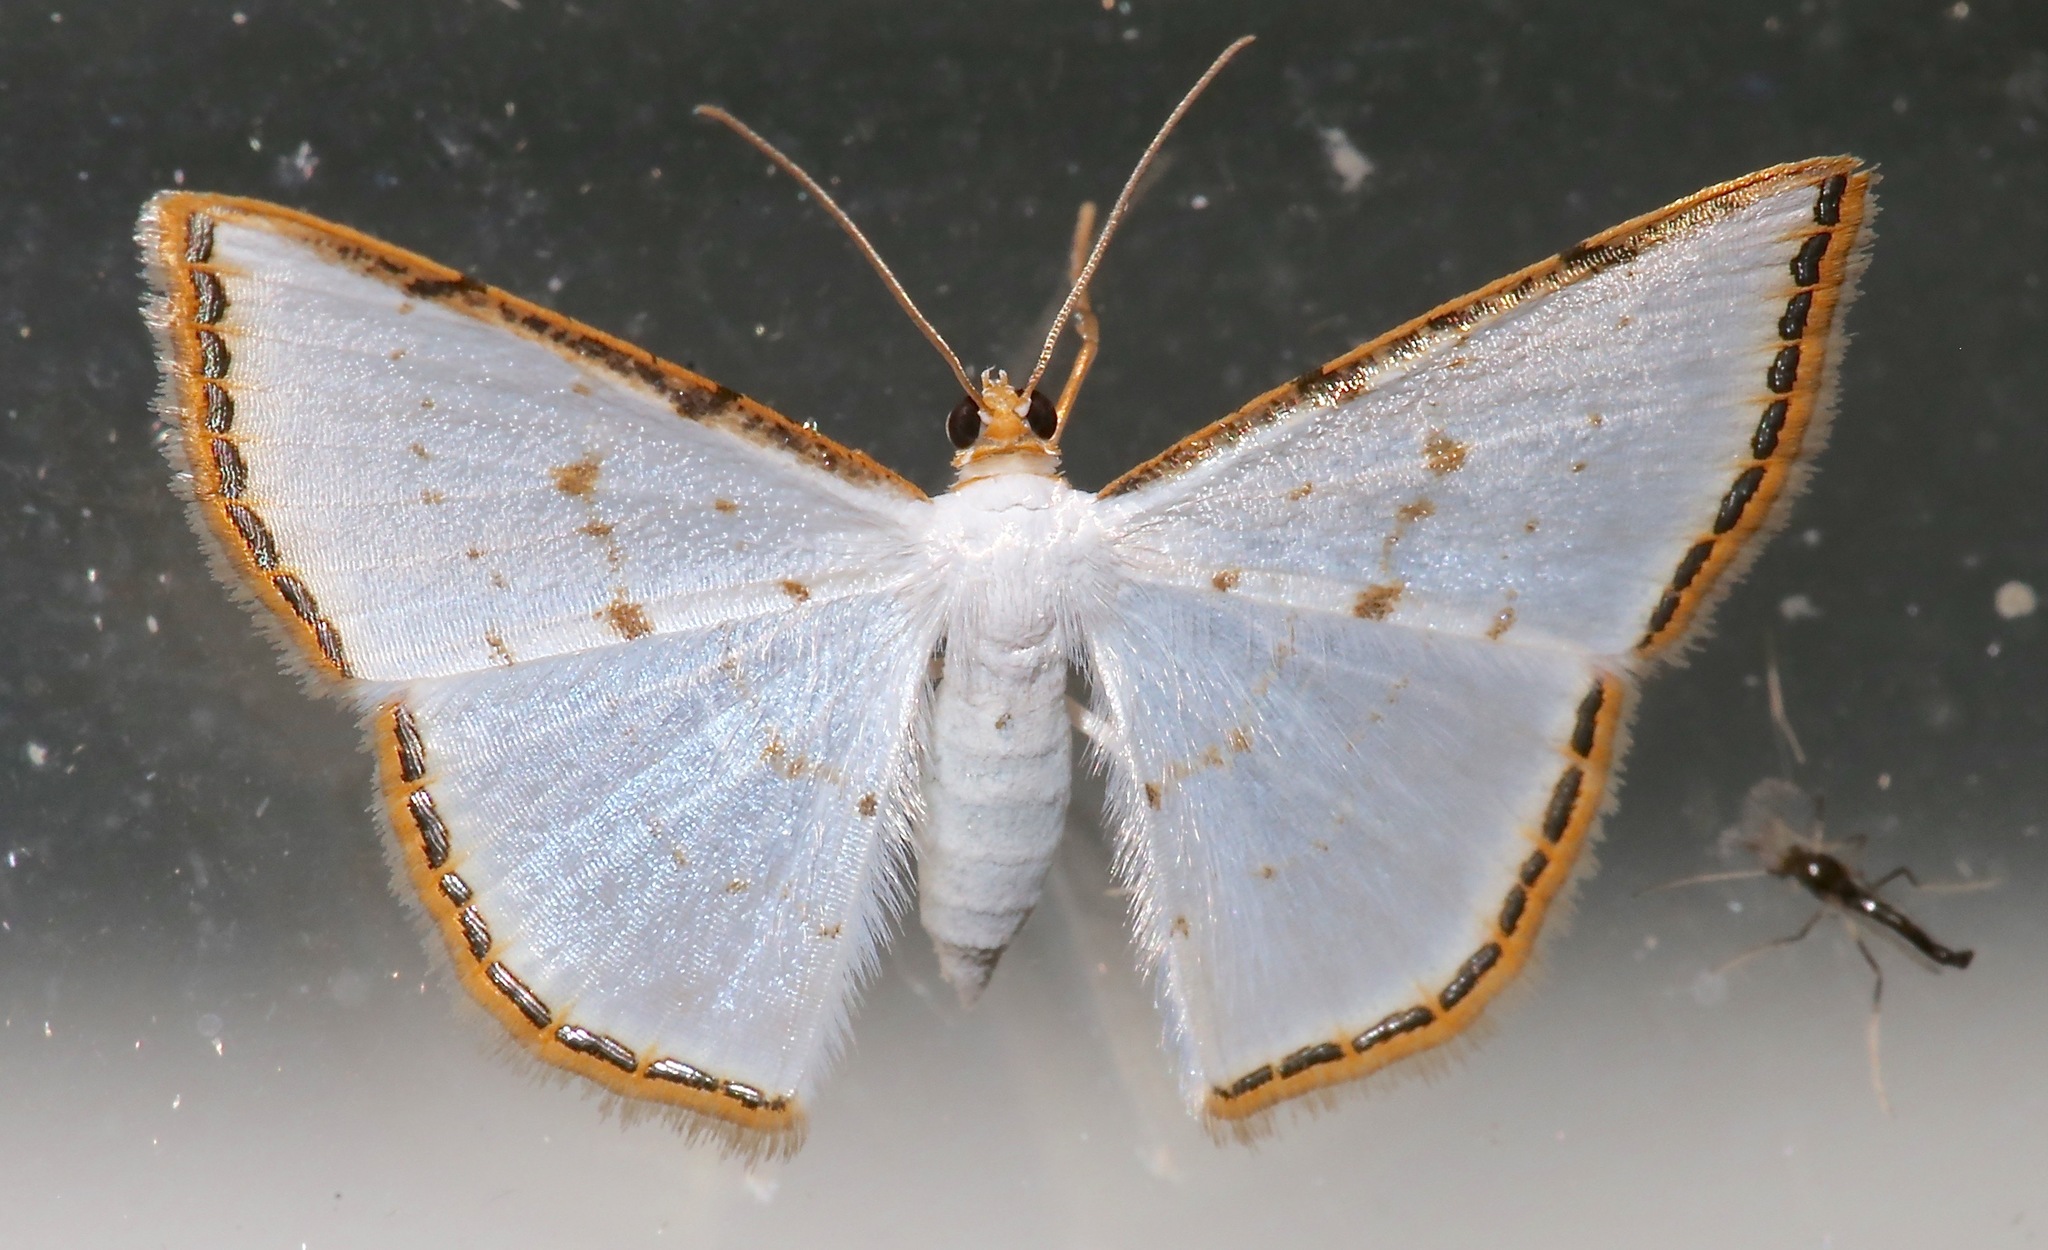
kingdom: Animalia
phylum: Arthropoda
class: Insecta
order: Lepidoptera
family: Geometridae
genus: Leuciris
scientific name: Leuciris fimbriaria
